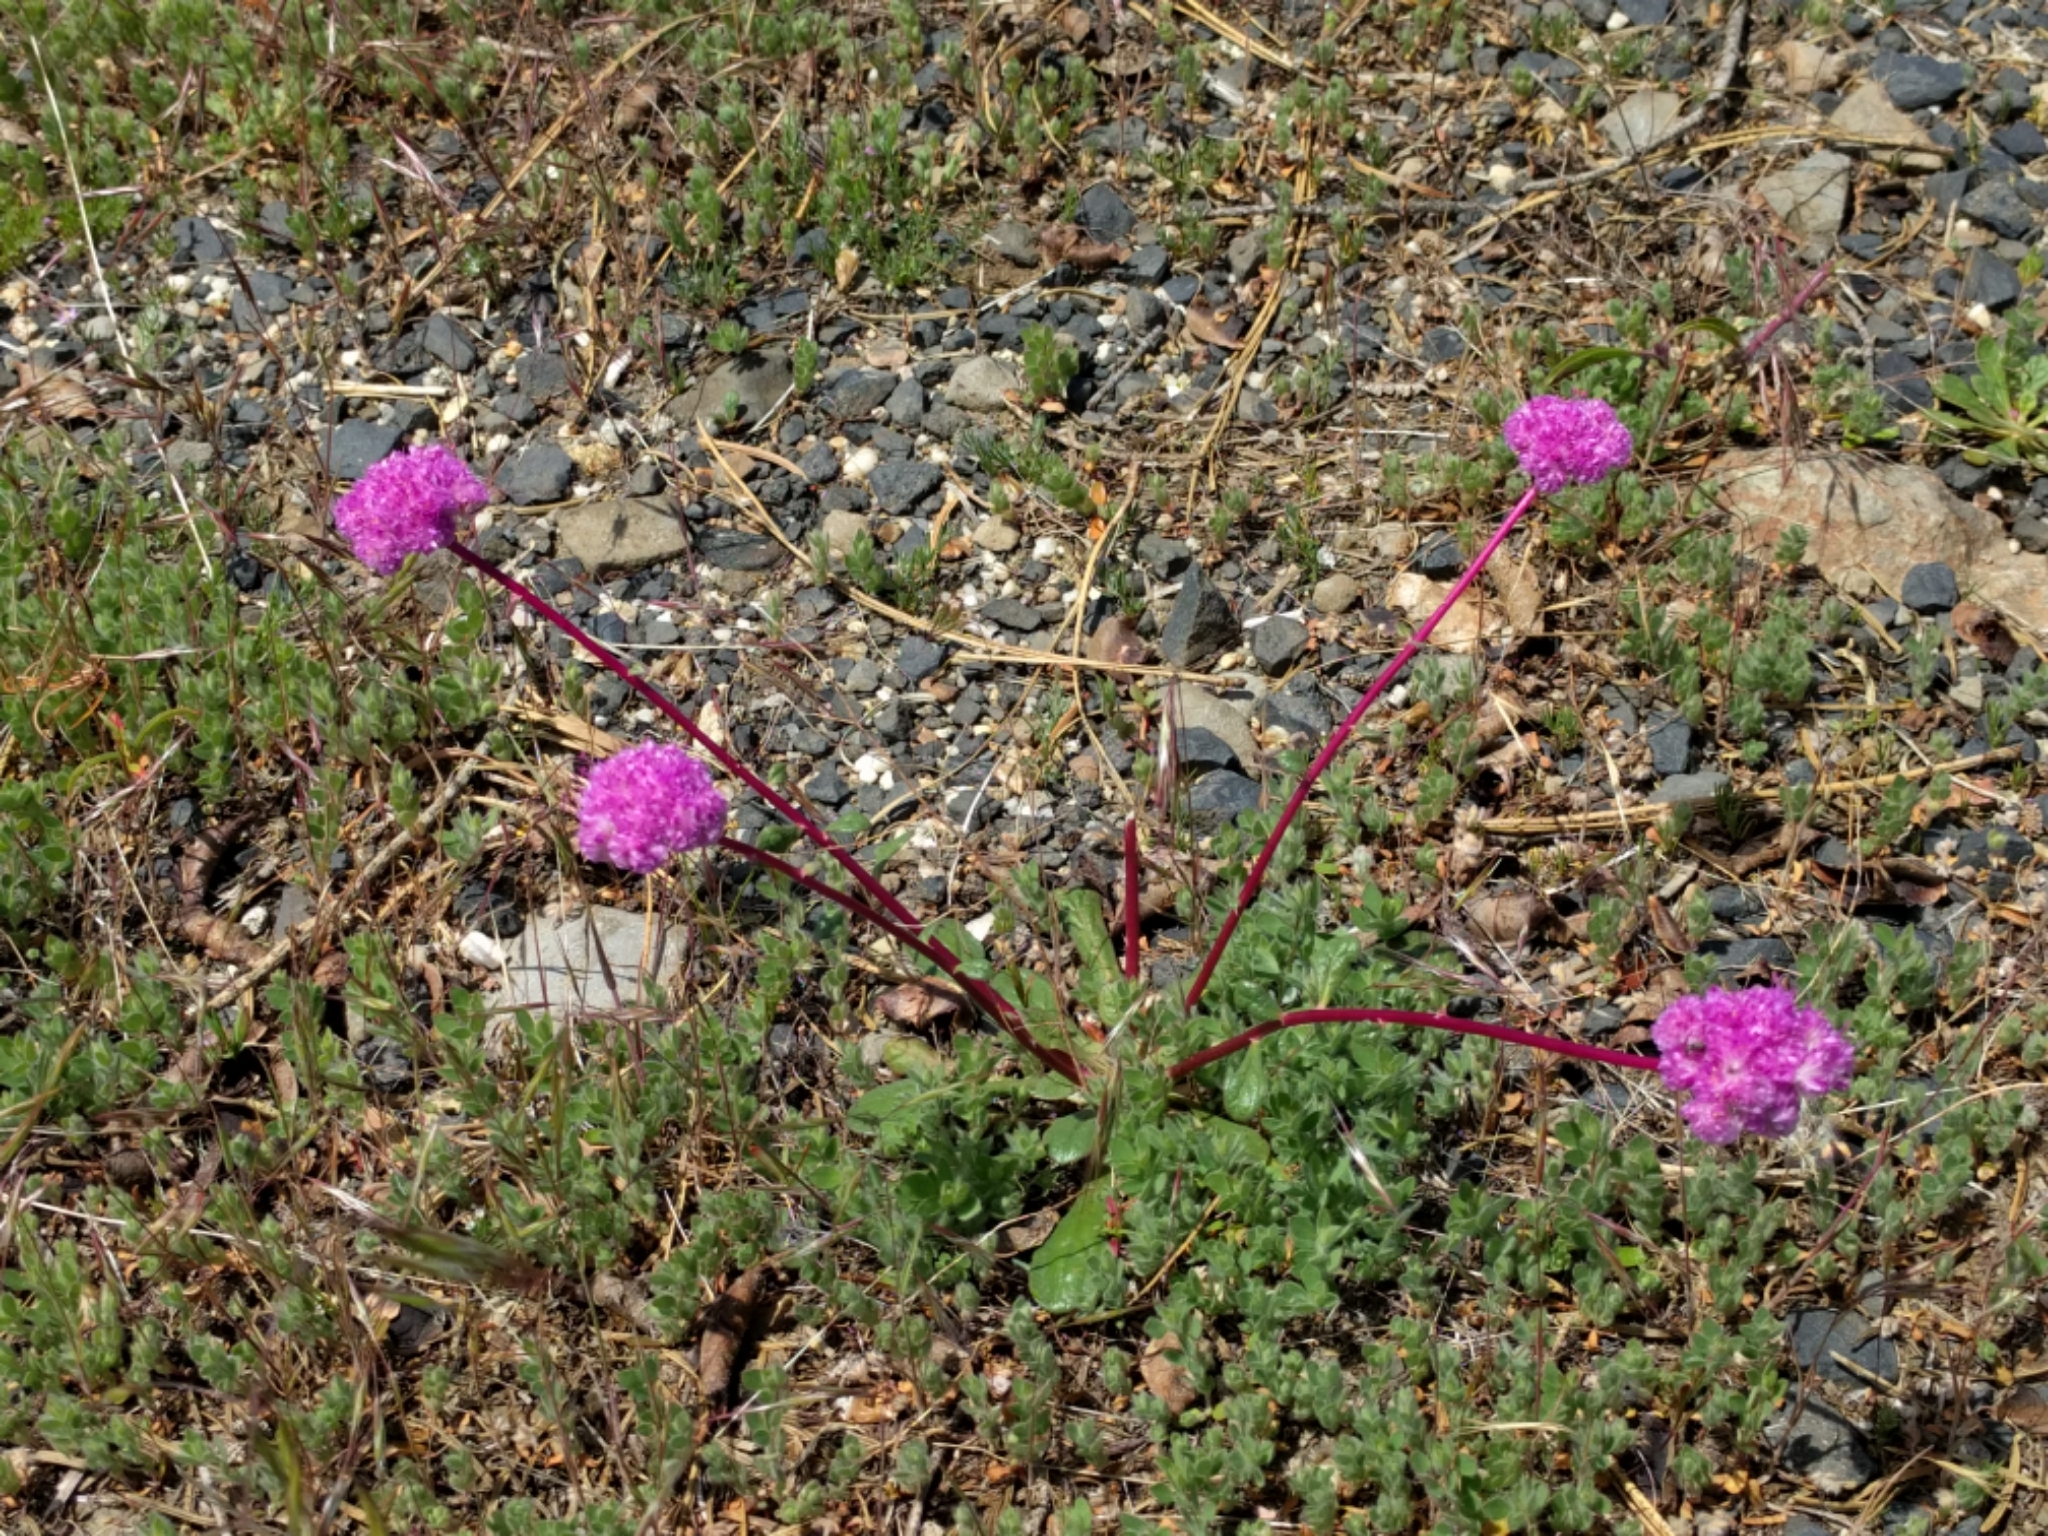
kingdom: Plantae
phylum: Tracheophyta
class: Magnoliopsida
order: Caryophyllales
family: Montiaceae
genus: Calyptridium
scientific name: Calyptridium monospermum
